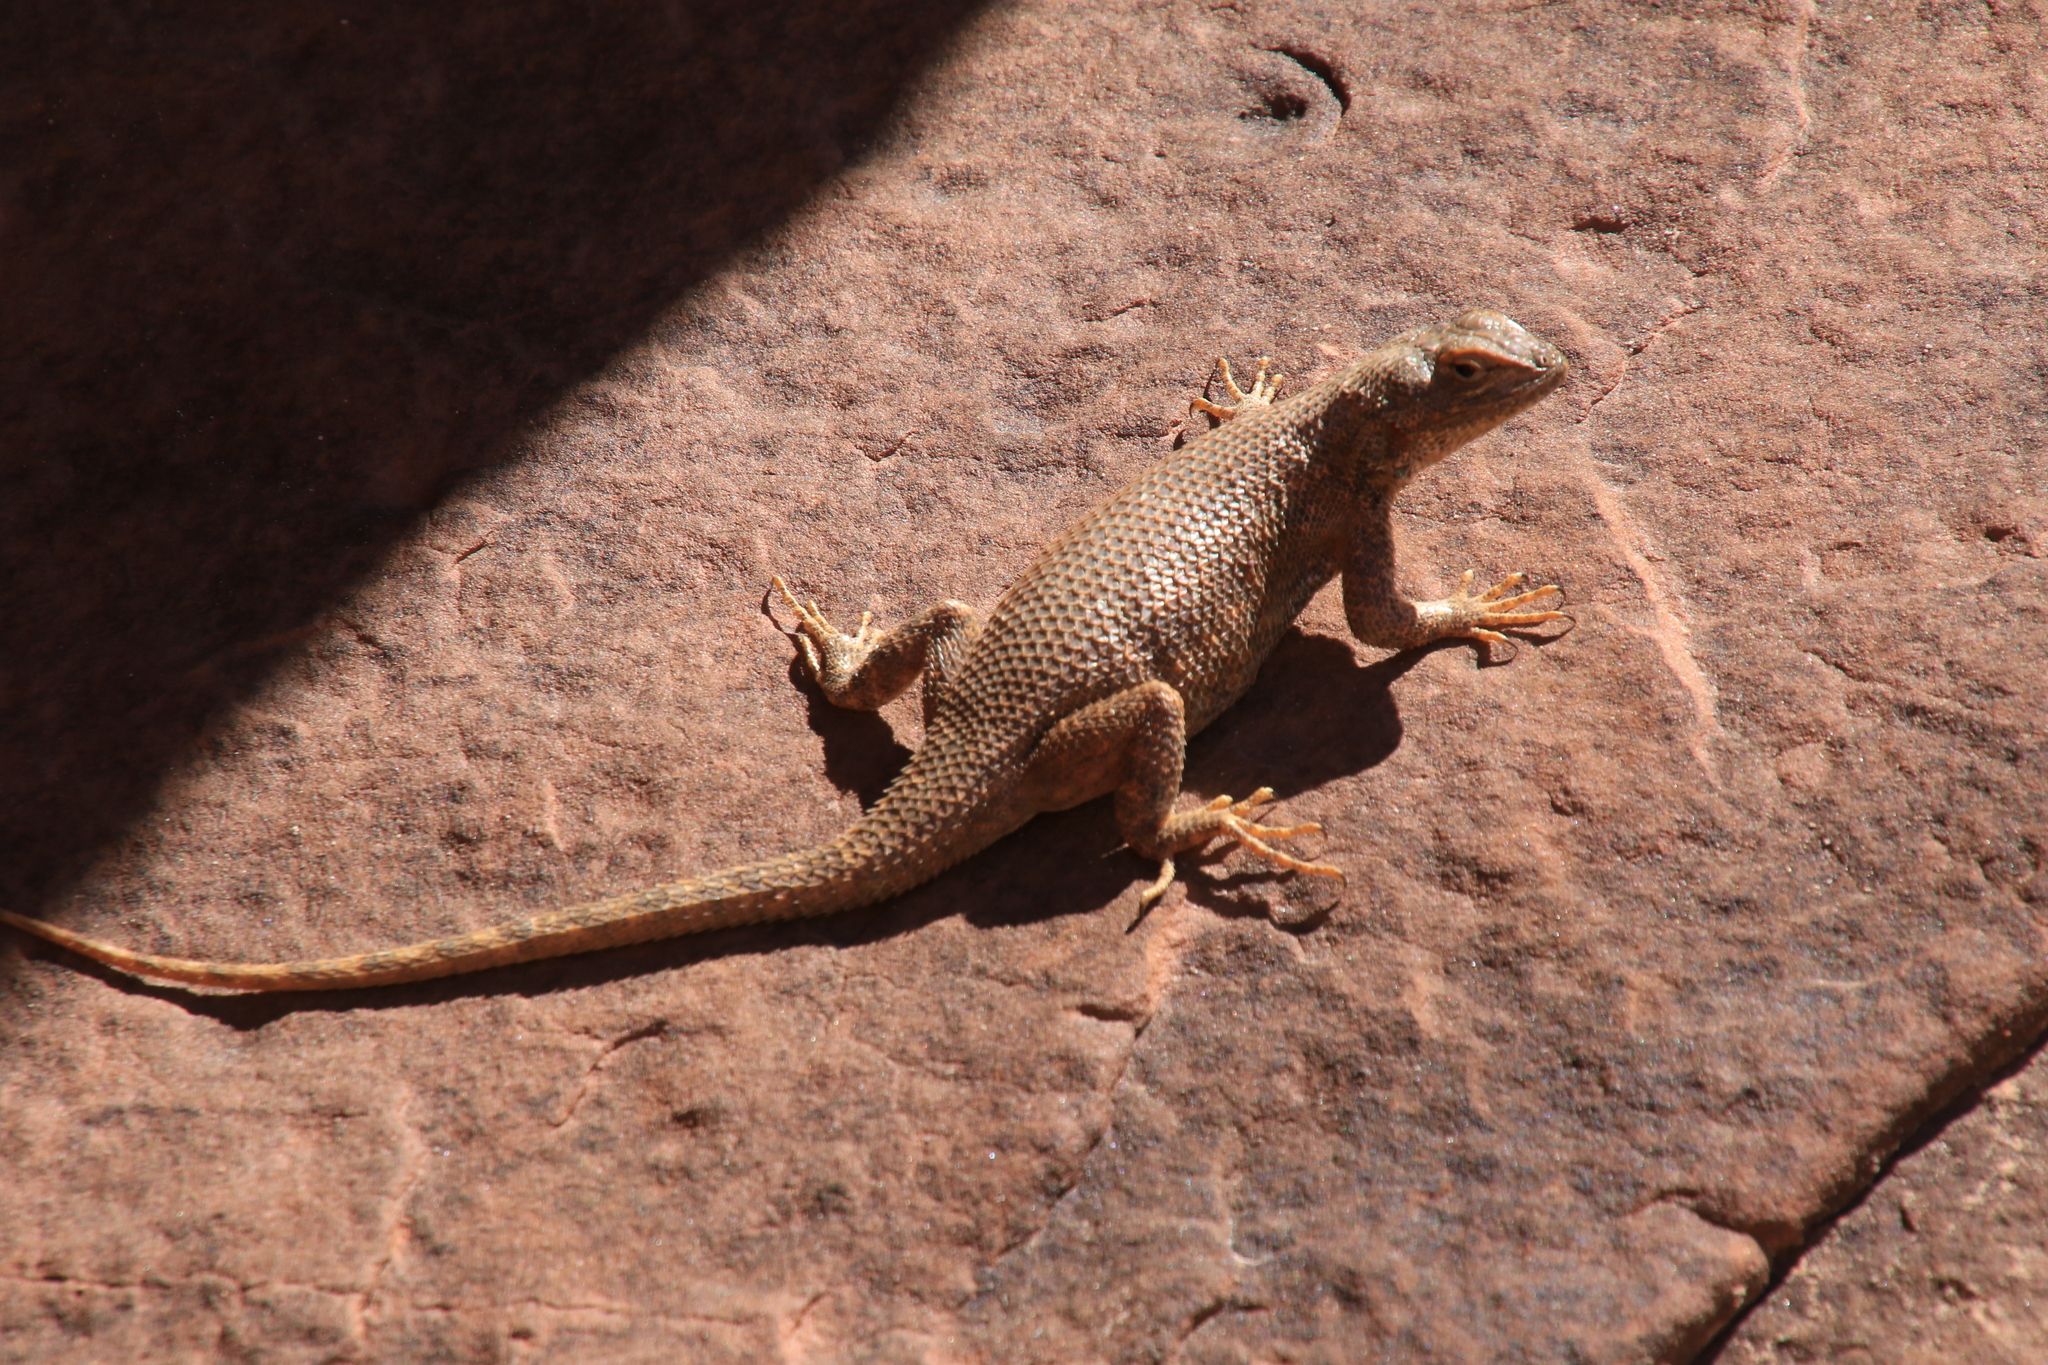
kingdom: Animalia
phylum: Chordata
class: Squamata
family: Phrynosomatidae
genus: Sceloporus
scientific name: Sceloporus tristichus
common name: Plateau fence lizard
